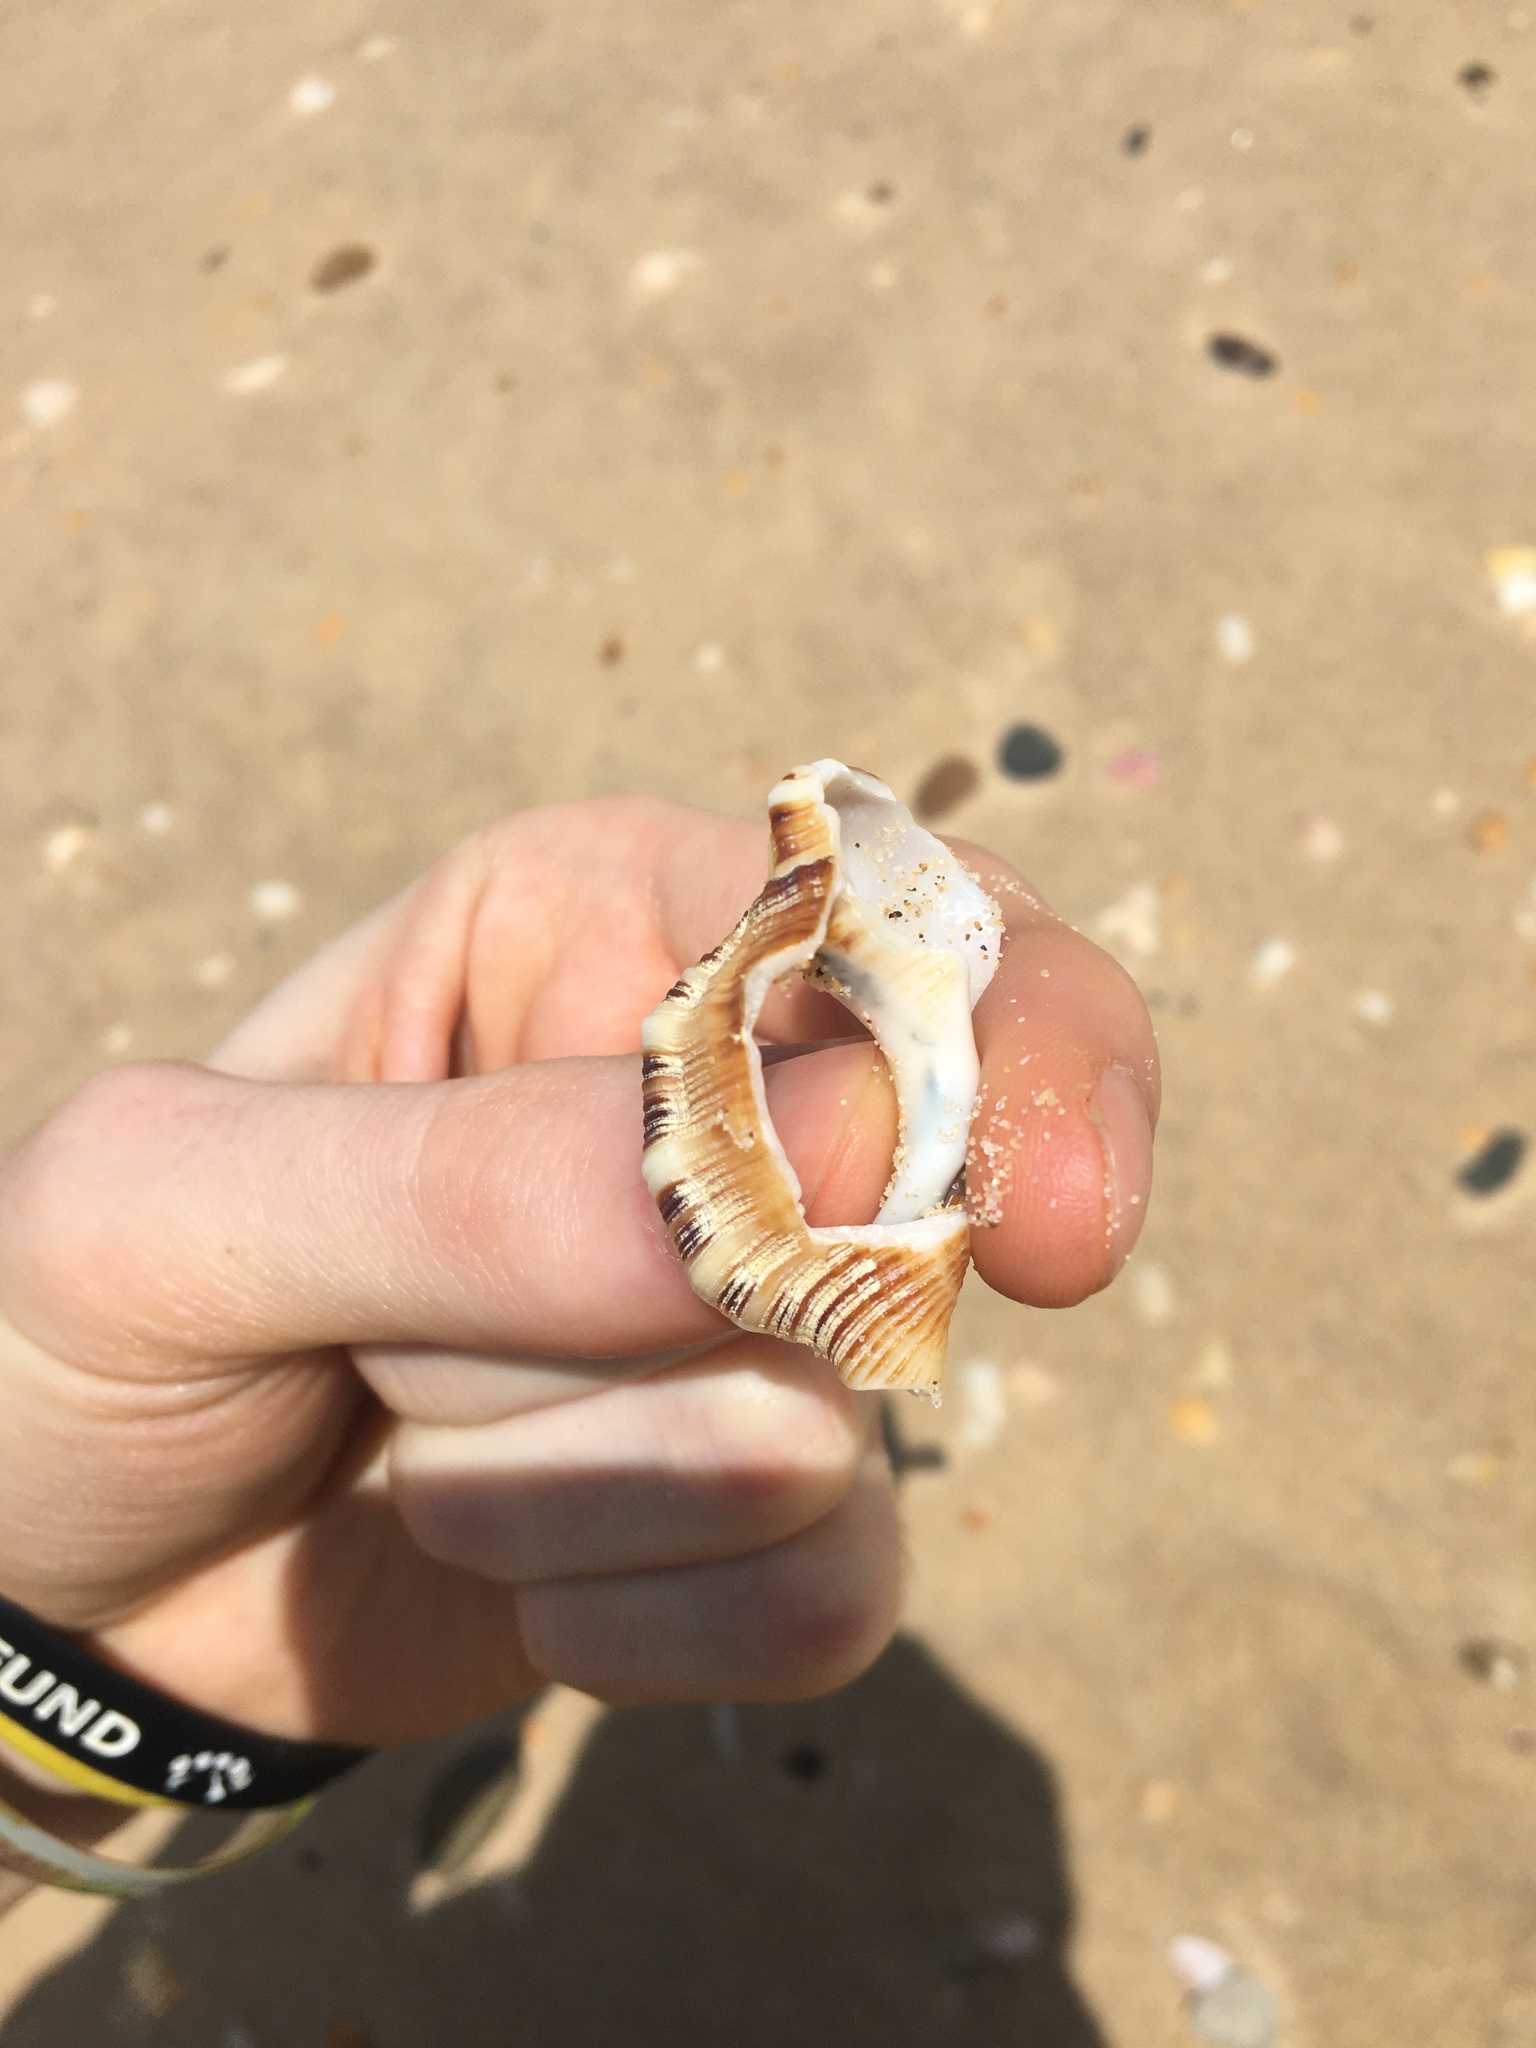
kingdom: Animalia
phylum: Mollusca
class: Gastropoda
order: Littorinimorpha
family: Ranellidae
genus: Ranella
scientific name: Ranella australasia
